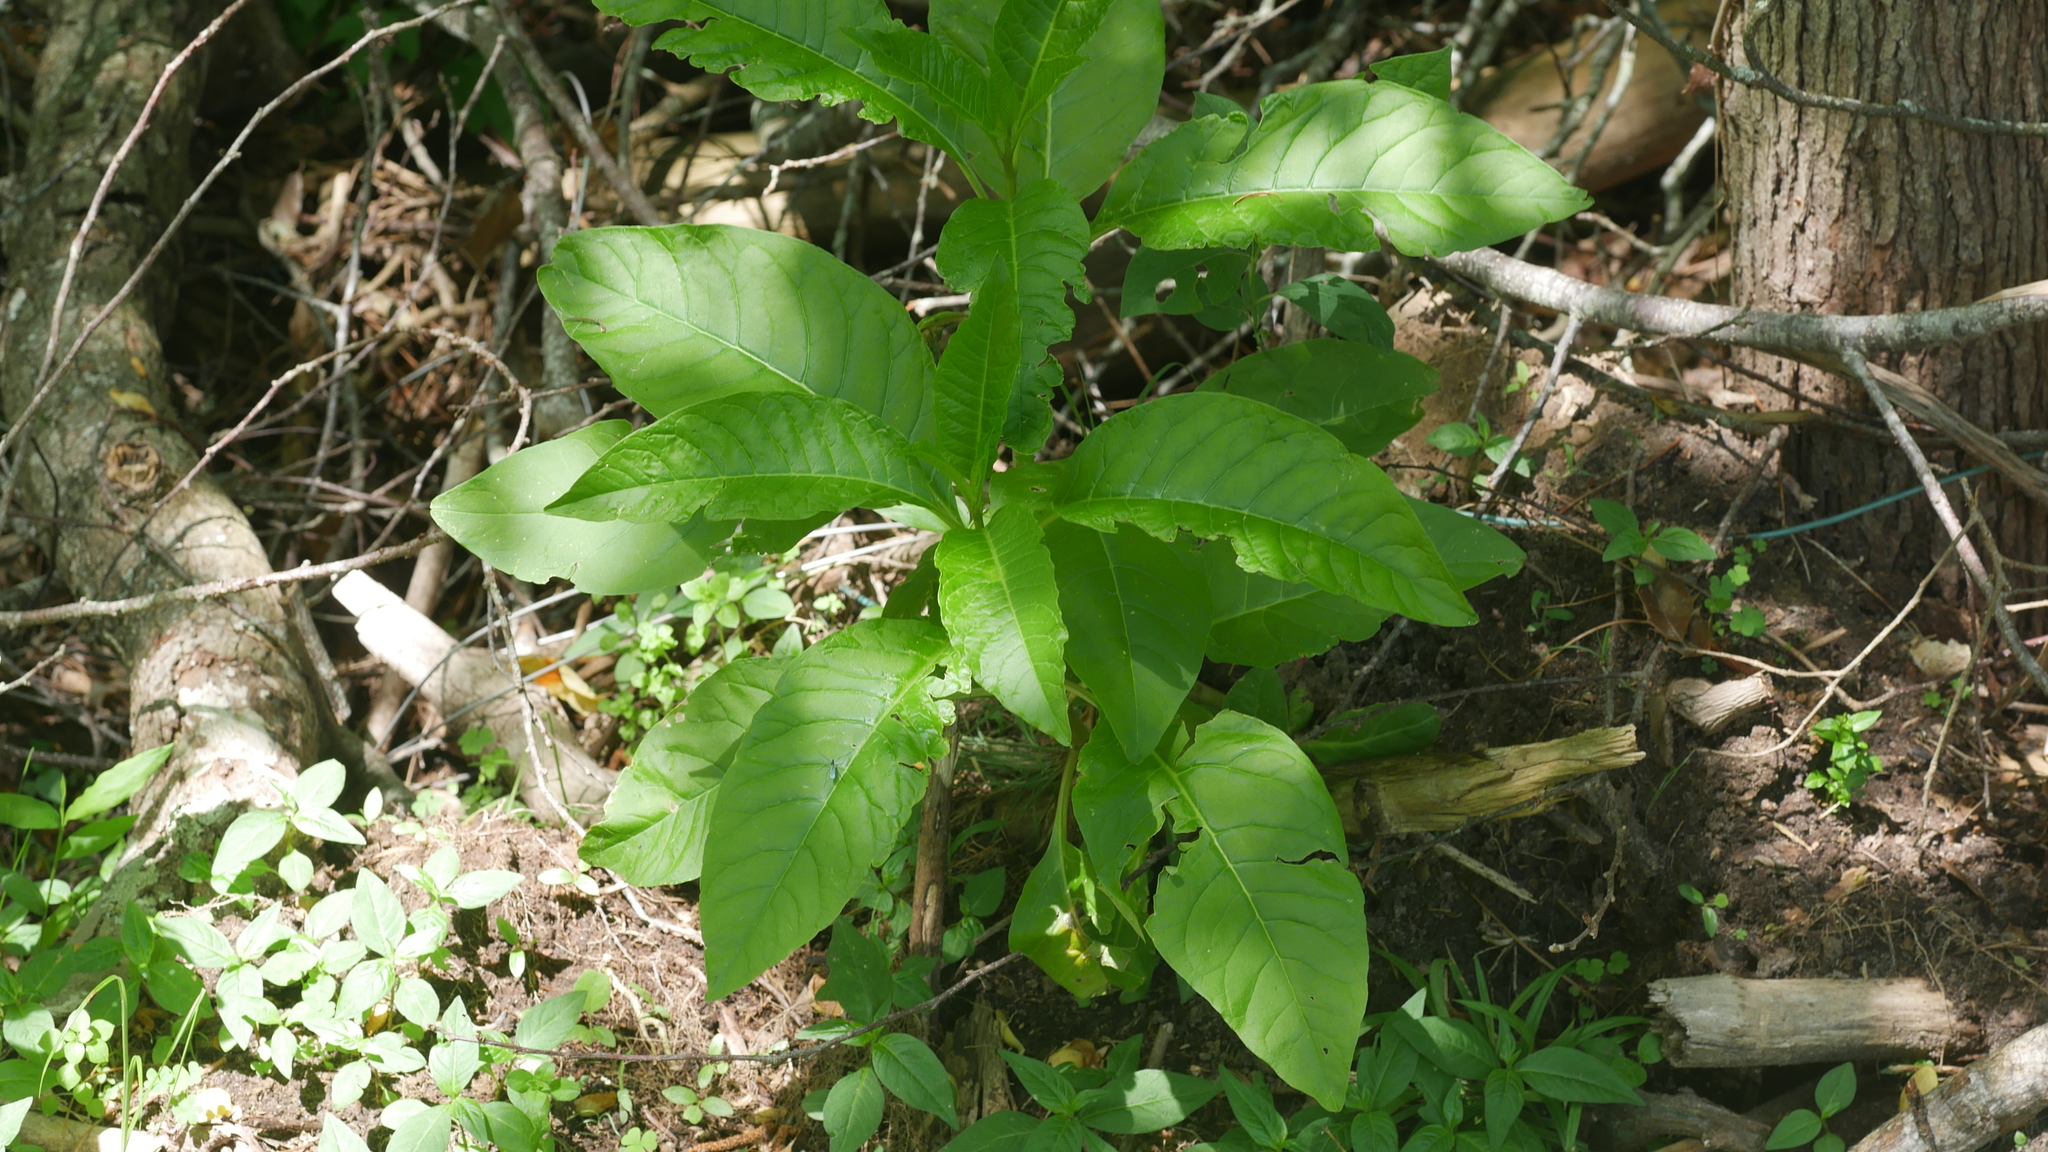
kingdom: Plantae
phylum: Tracheophyta
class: Magnoliopsida
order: Caryophyllales
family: Phytolaccaceae
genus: Phytolacca
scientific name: Phytolacca americana
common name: American pokeweed
